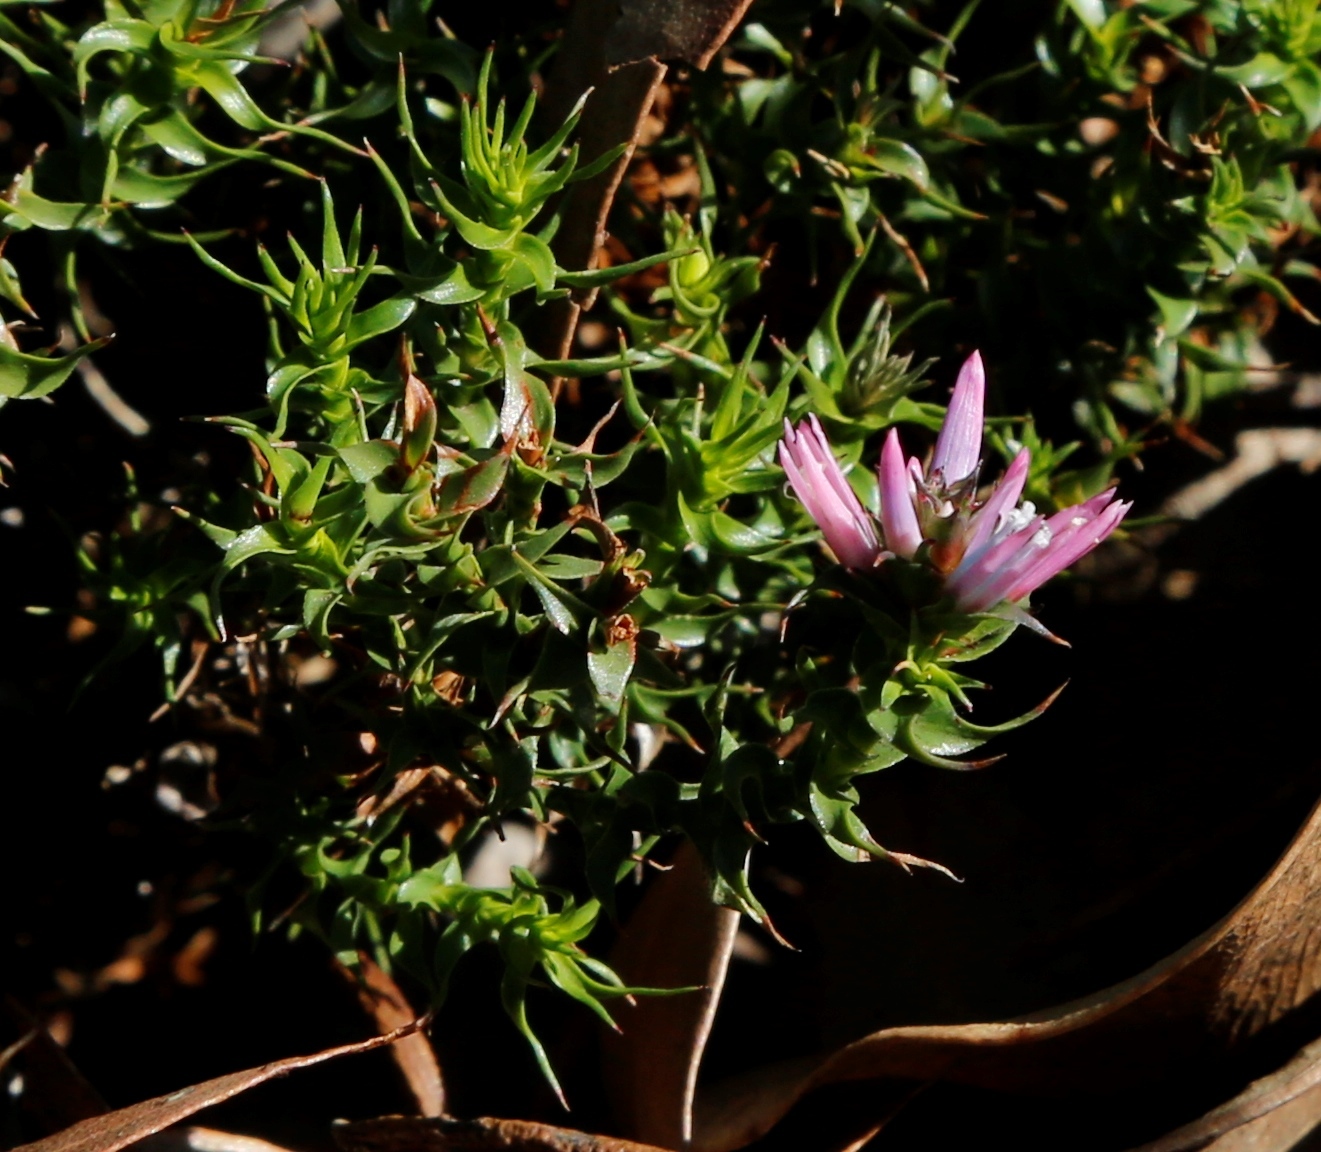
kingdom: Plantae
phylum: Tracheophyta
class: Magnoliopsida
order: Ericales
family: Ericaceae
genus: Andersonia
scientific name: Andersonia lehmanniana
